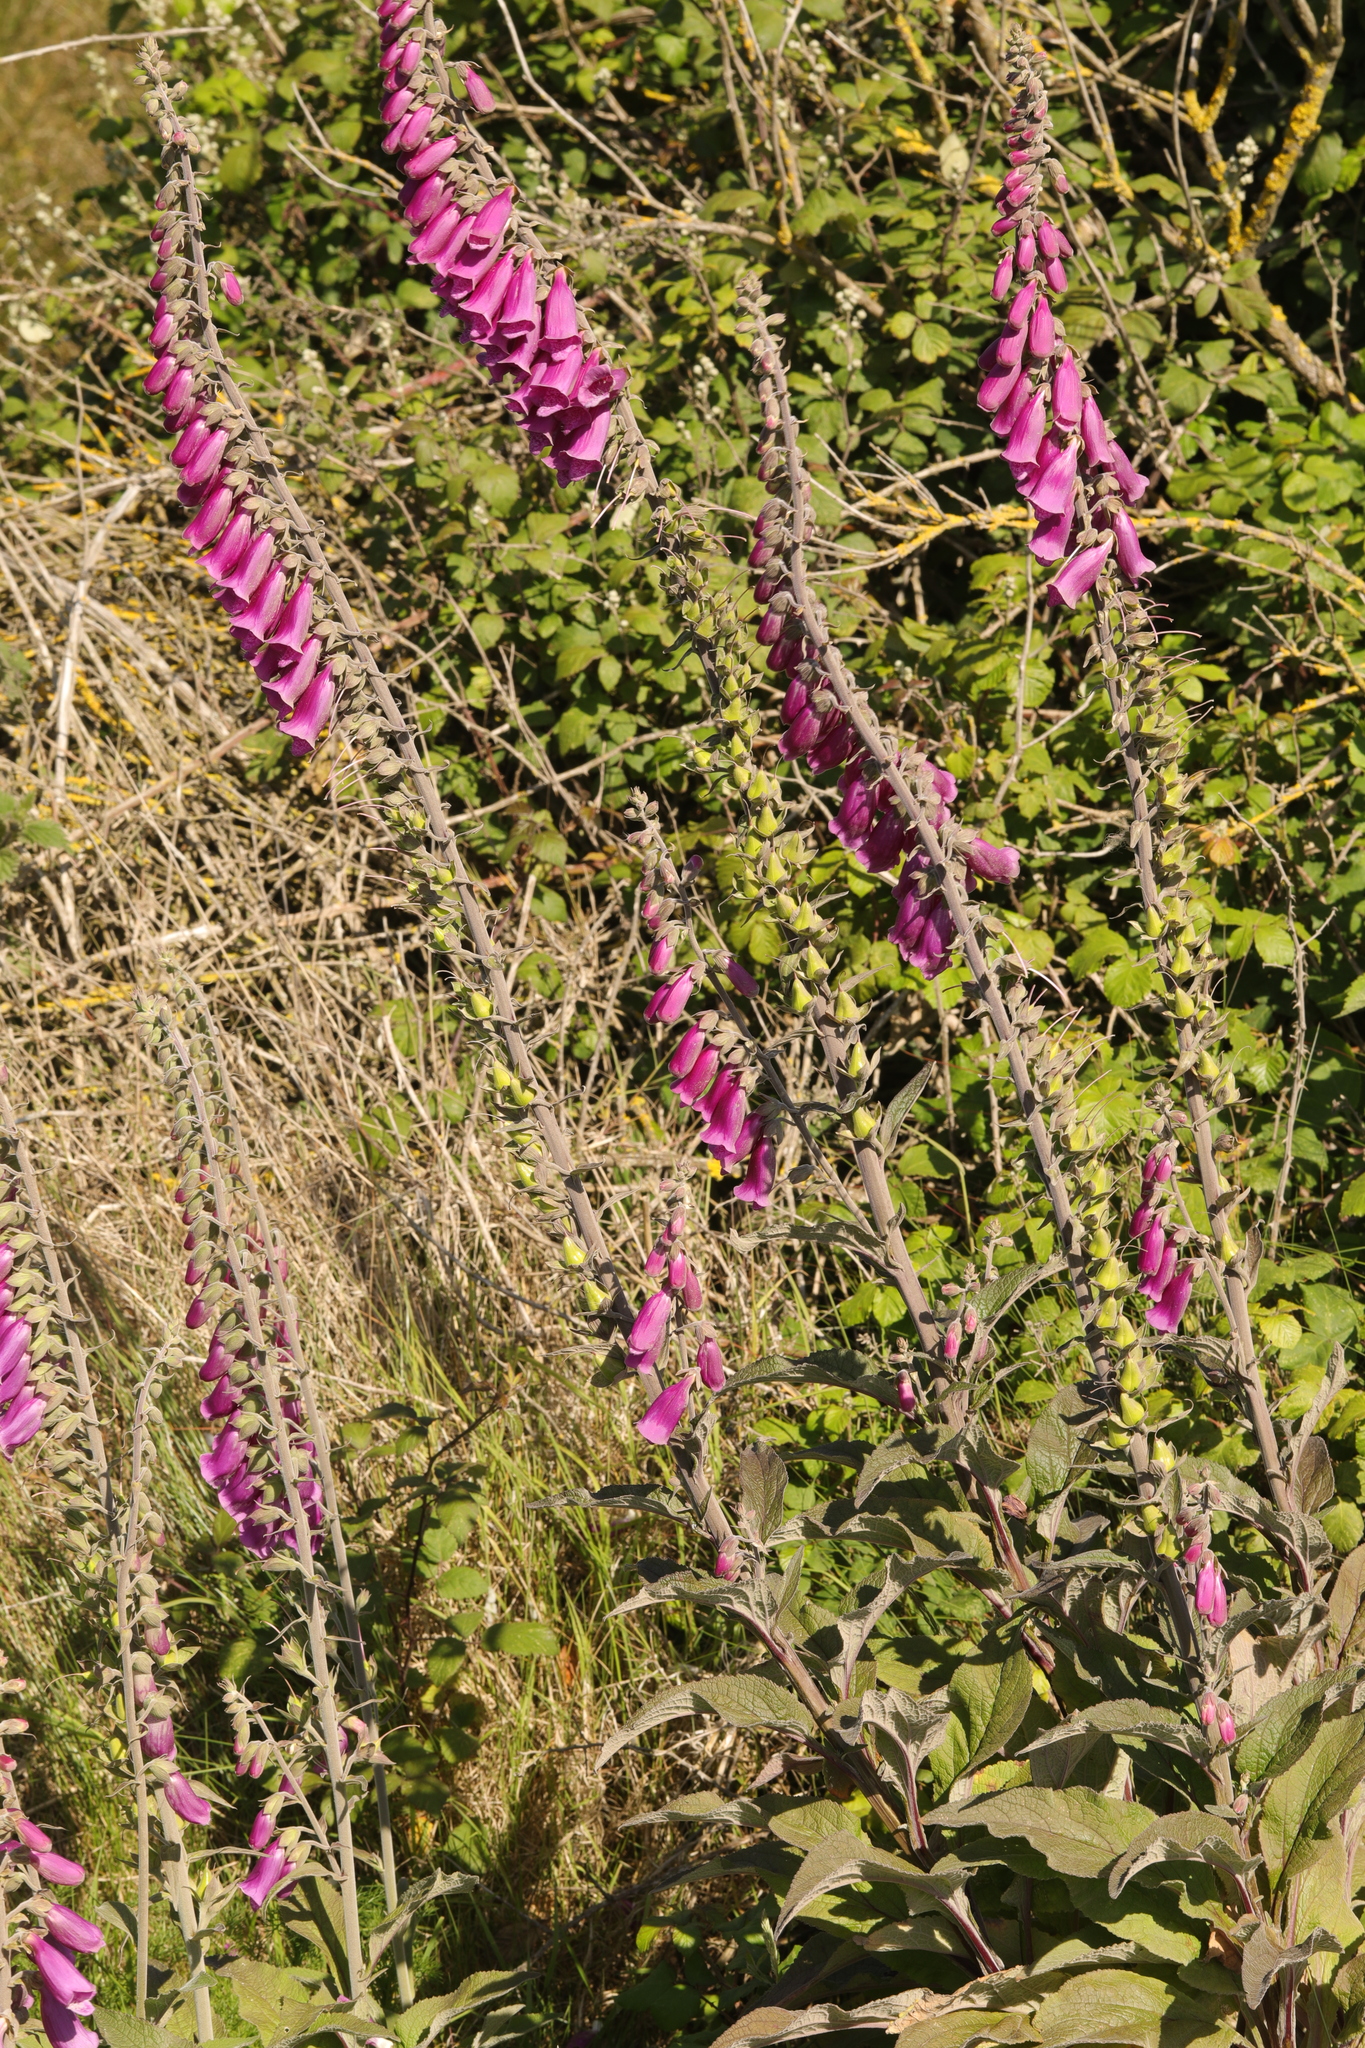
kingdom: Plantae
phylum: Tracheophyta
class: Magnoliopsida
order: Lamiales
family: Plantaginaceae
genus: Digitalis
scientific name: Digitalis purpurea
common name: Foxglove
